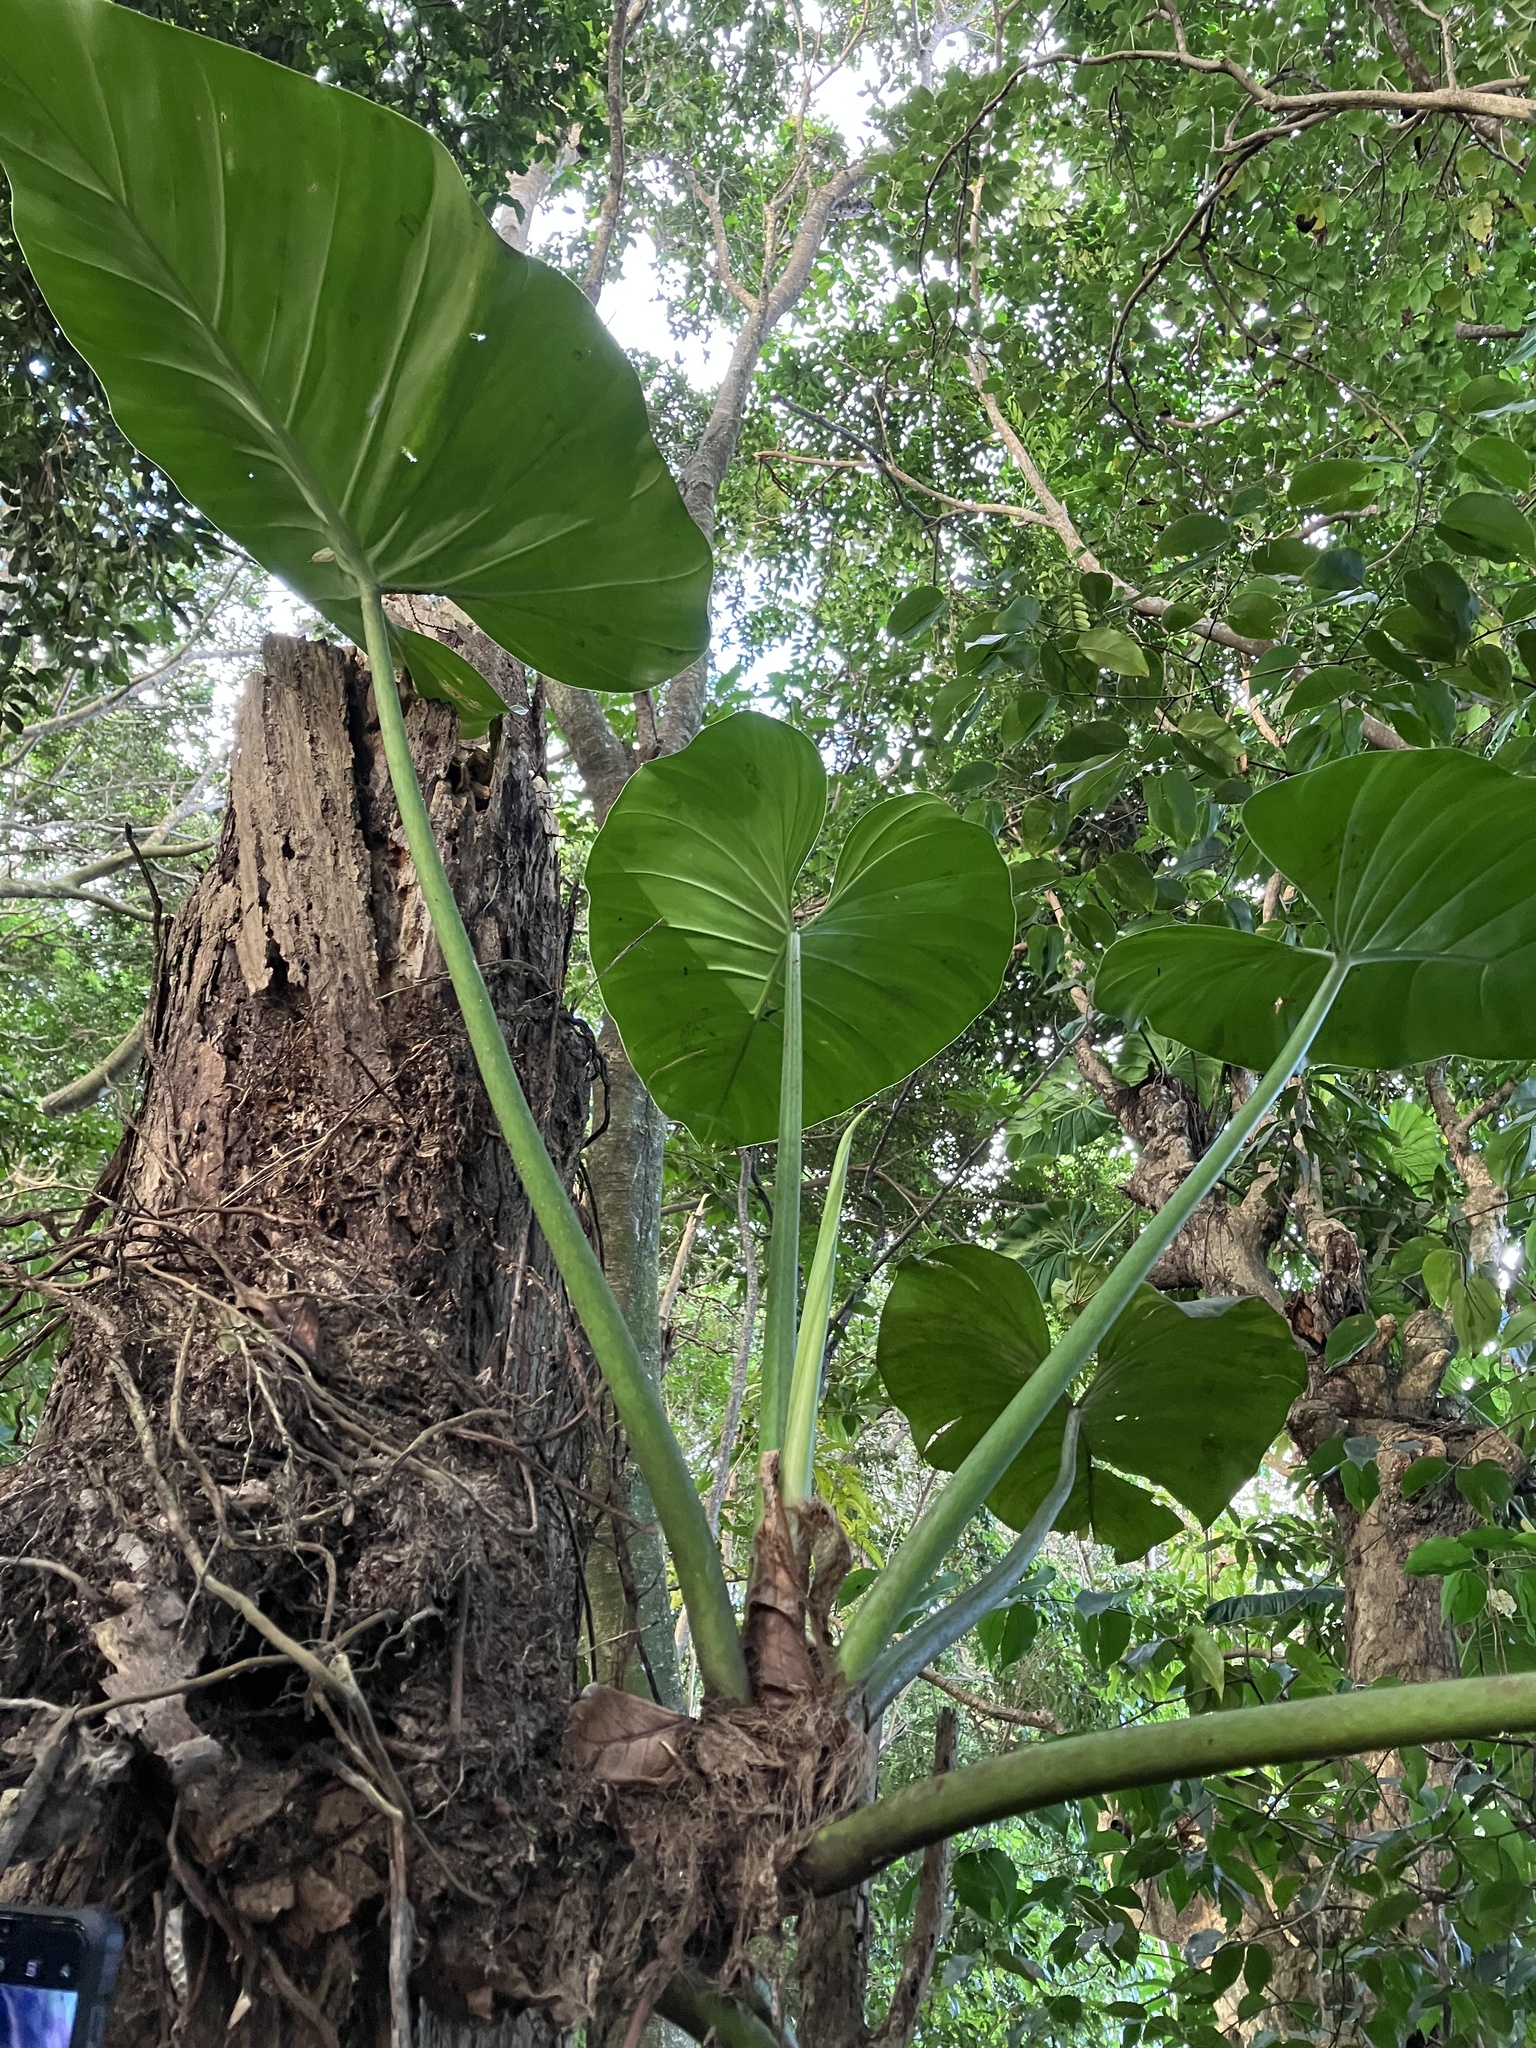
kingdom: Plantae
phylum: Tracheophyta
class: Liliopsida
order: Alismatales
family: Araceae
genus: Philodendron
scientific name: Philodendron giganteum
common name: Giant philodendron
